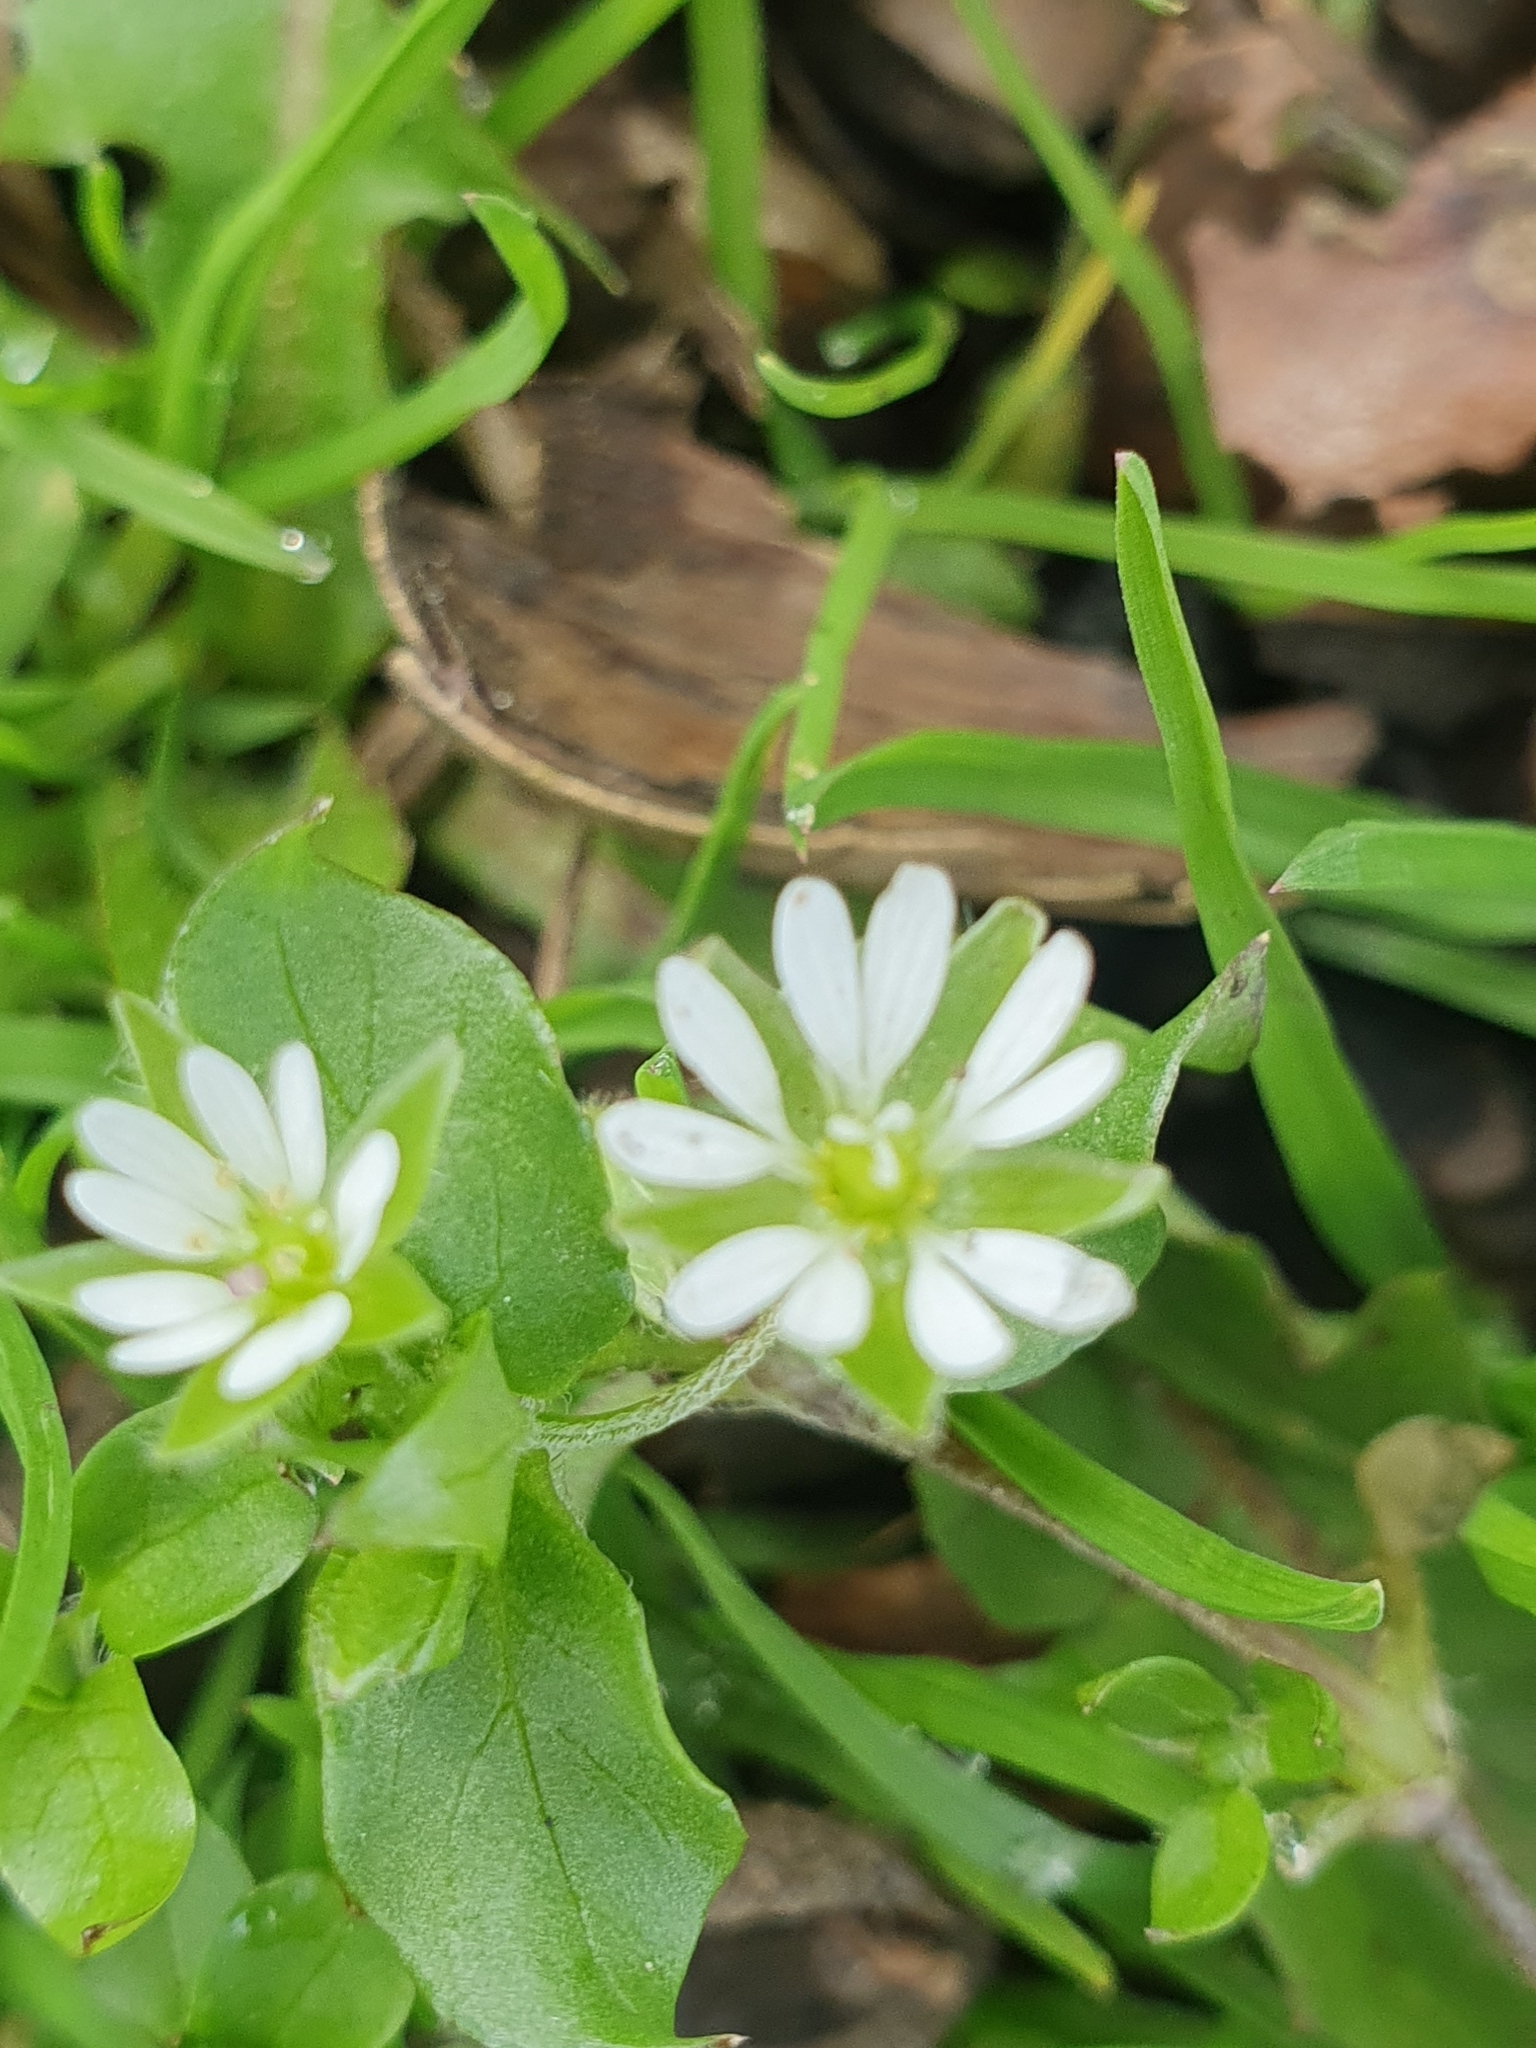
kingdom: Plantae
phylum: Tracheophyta
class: Magnoliopsida
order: Caryophyllales
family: Caryophyllaceae
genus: Stellaria
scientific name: Stellaria media
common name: Common chickweed
